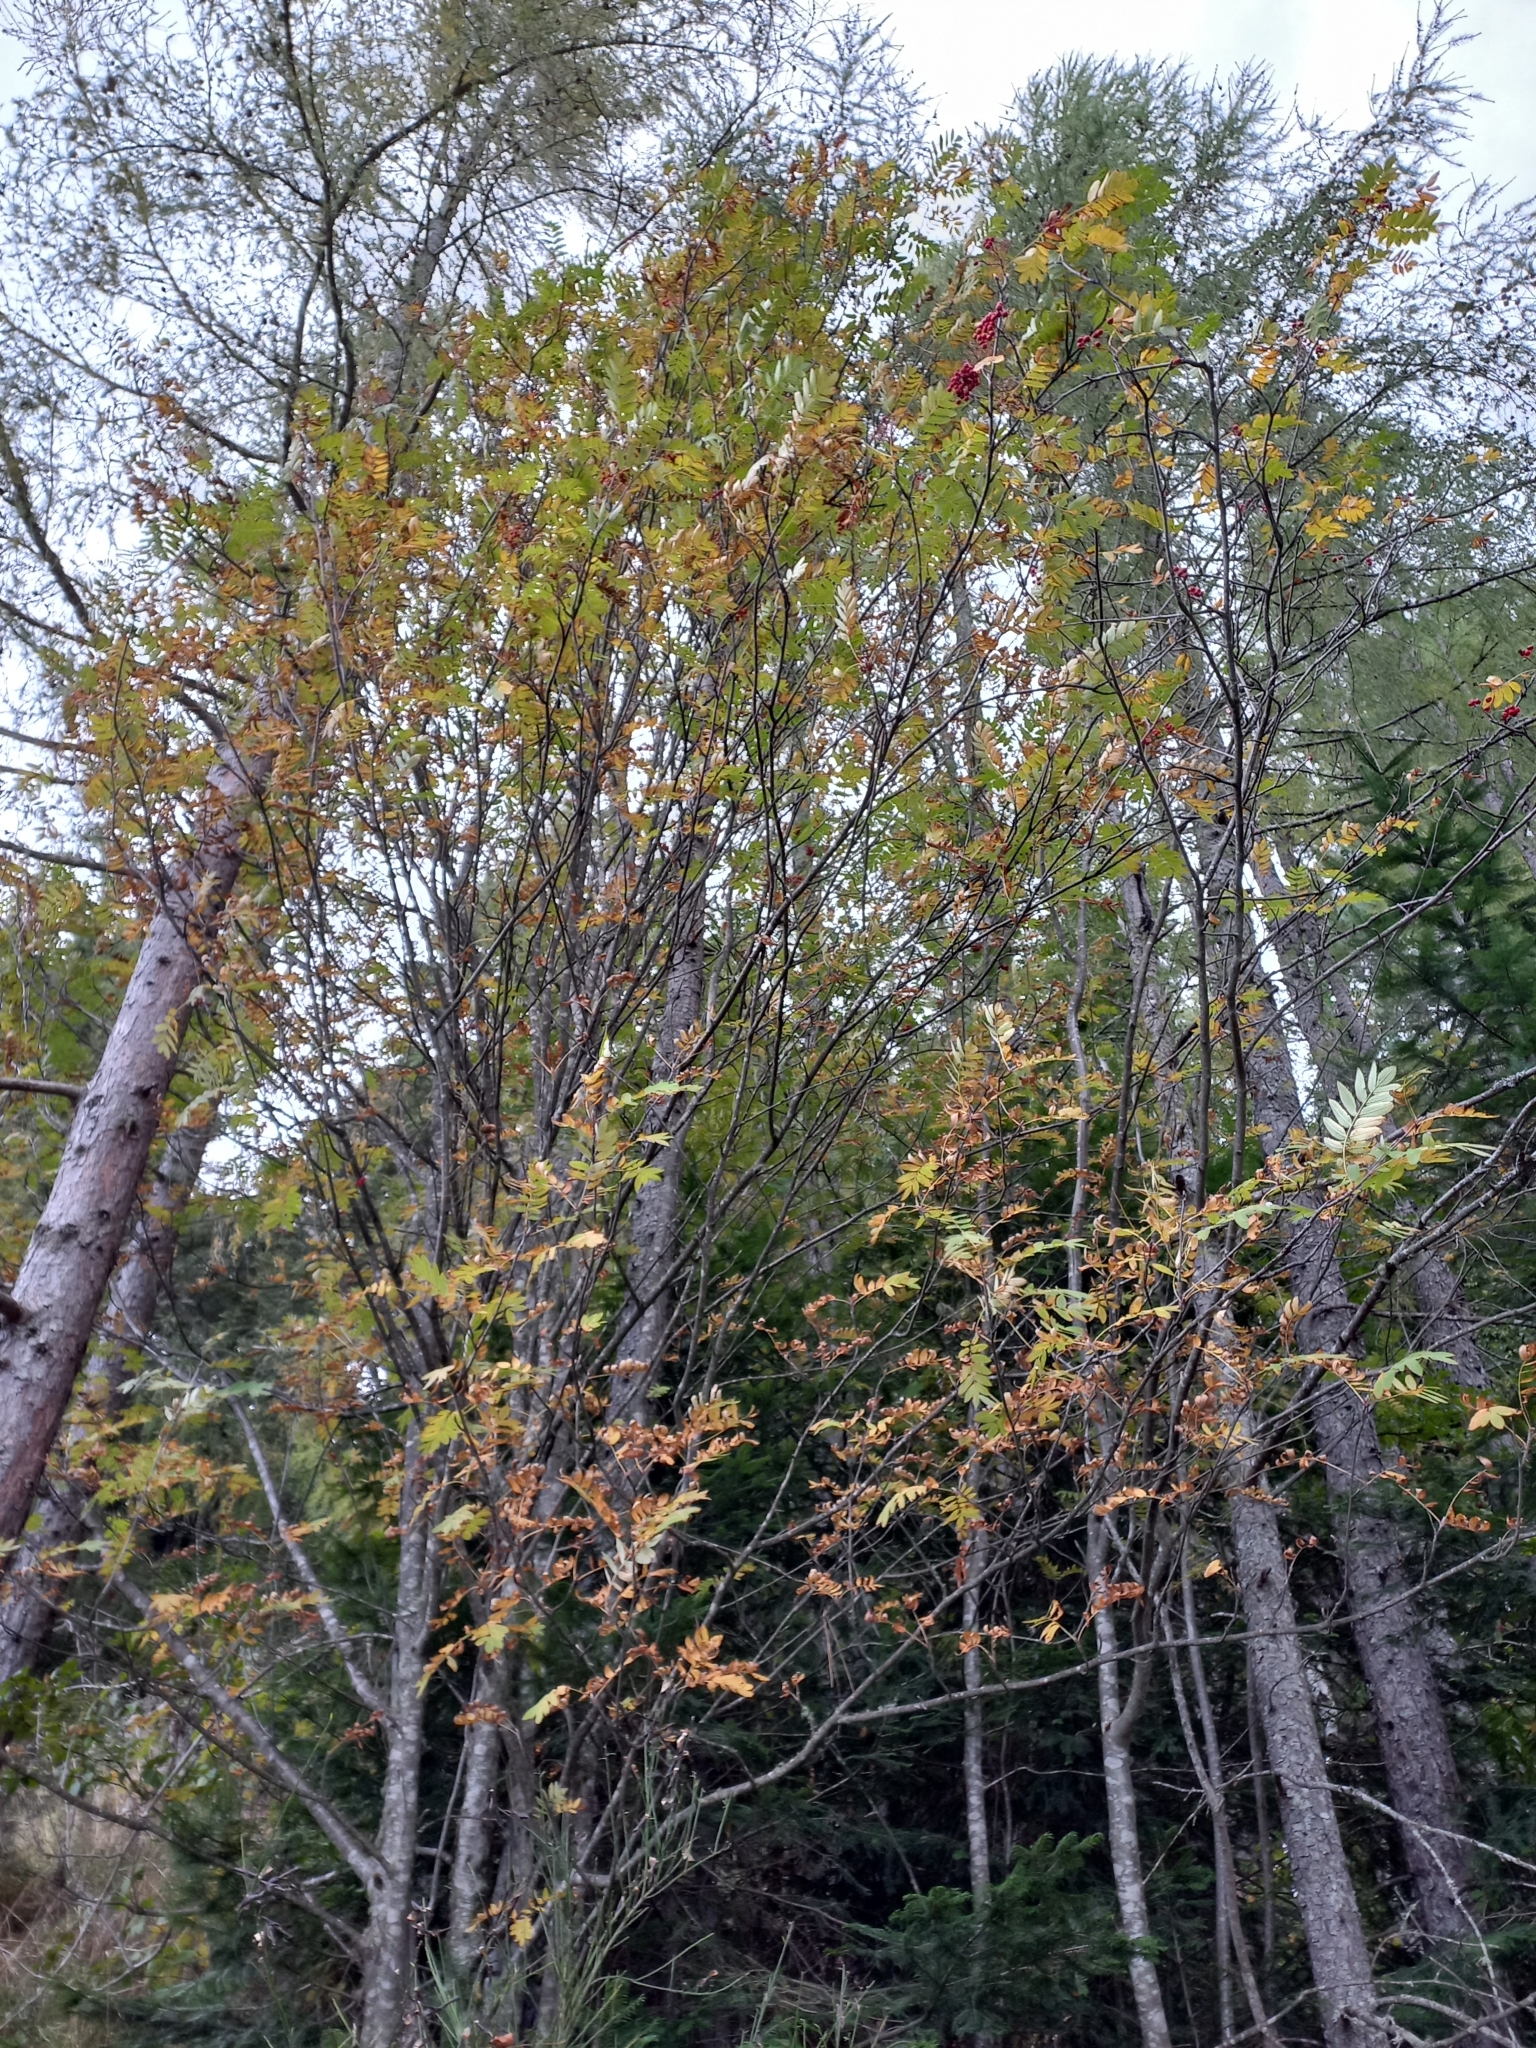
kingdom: Plantae
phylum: Tracheophyta
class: Magnoliopsida
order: Rosales
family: Rosaceae
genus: Sorbus
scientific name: Sorbus aucuparia
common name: Rowan
